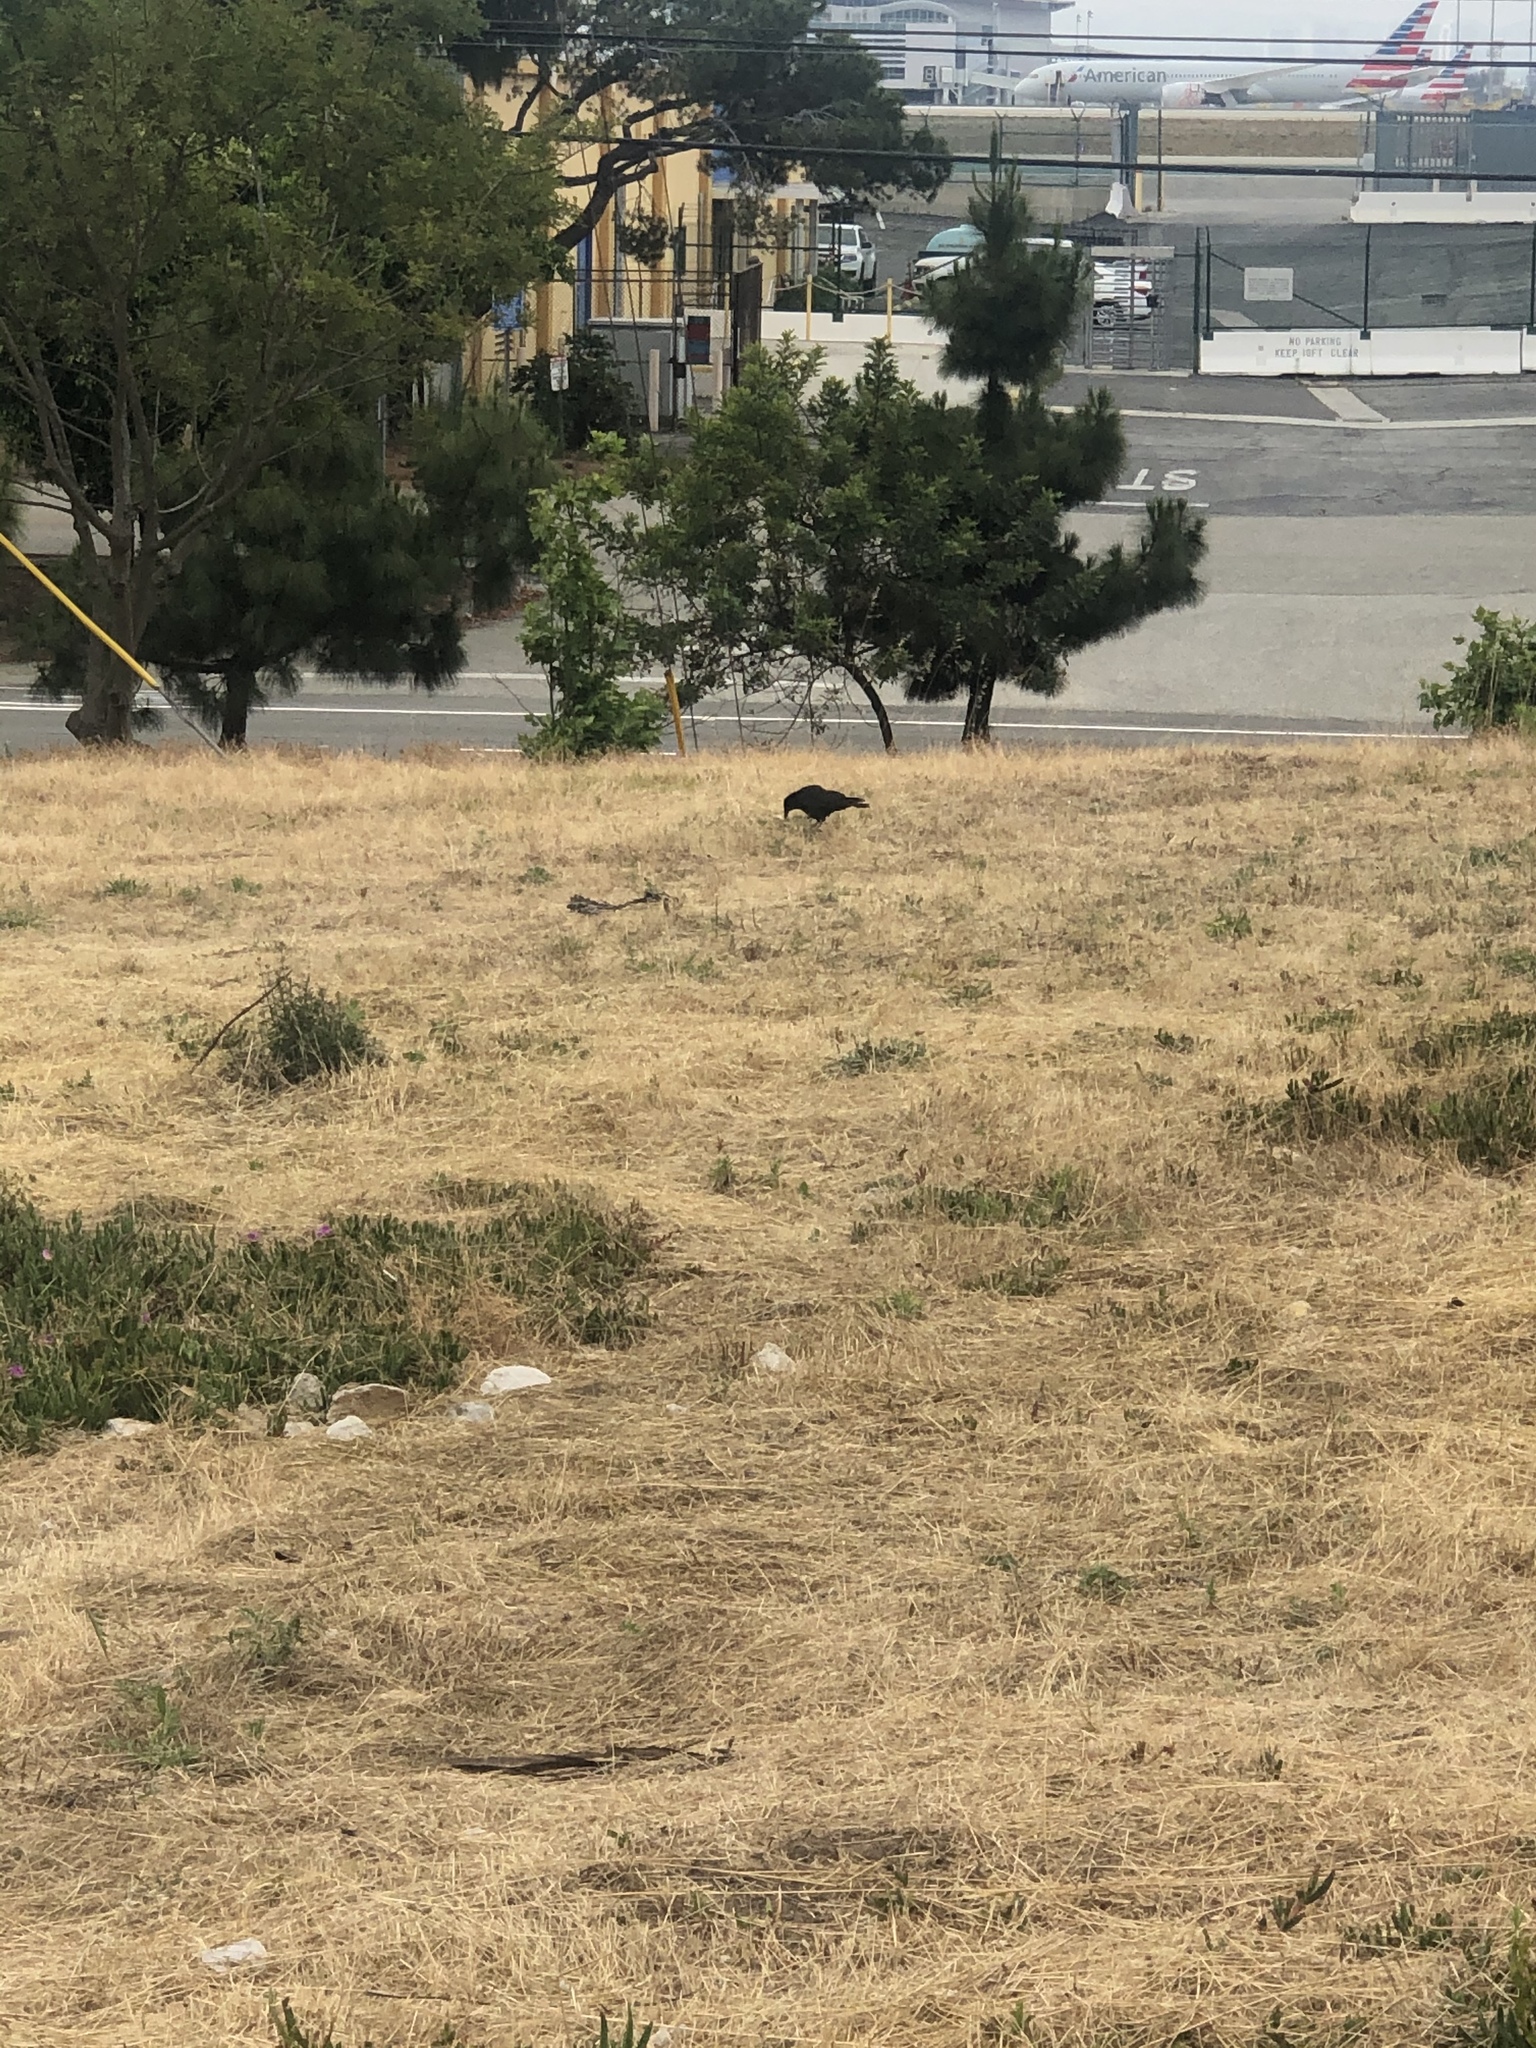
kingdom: Animalia
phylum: Chordata
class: Aves
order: Passeriformes
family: Corvidae
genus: Corvus
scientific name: Corvus brachyrhynchos
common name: American crow
